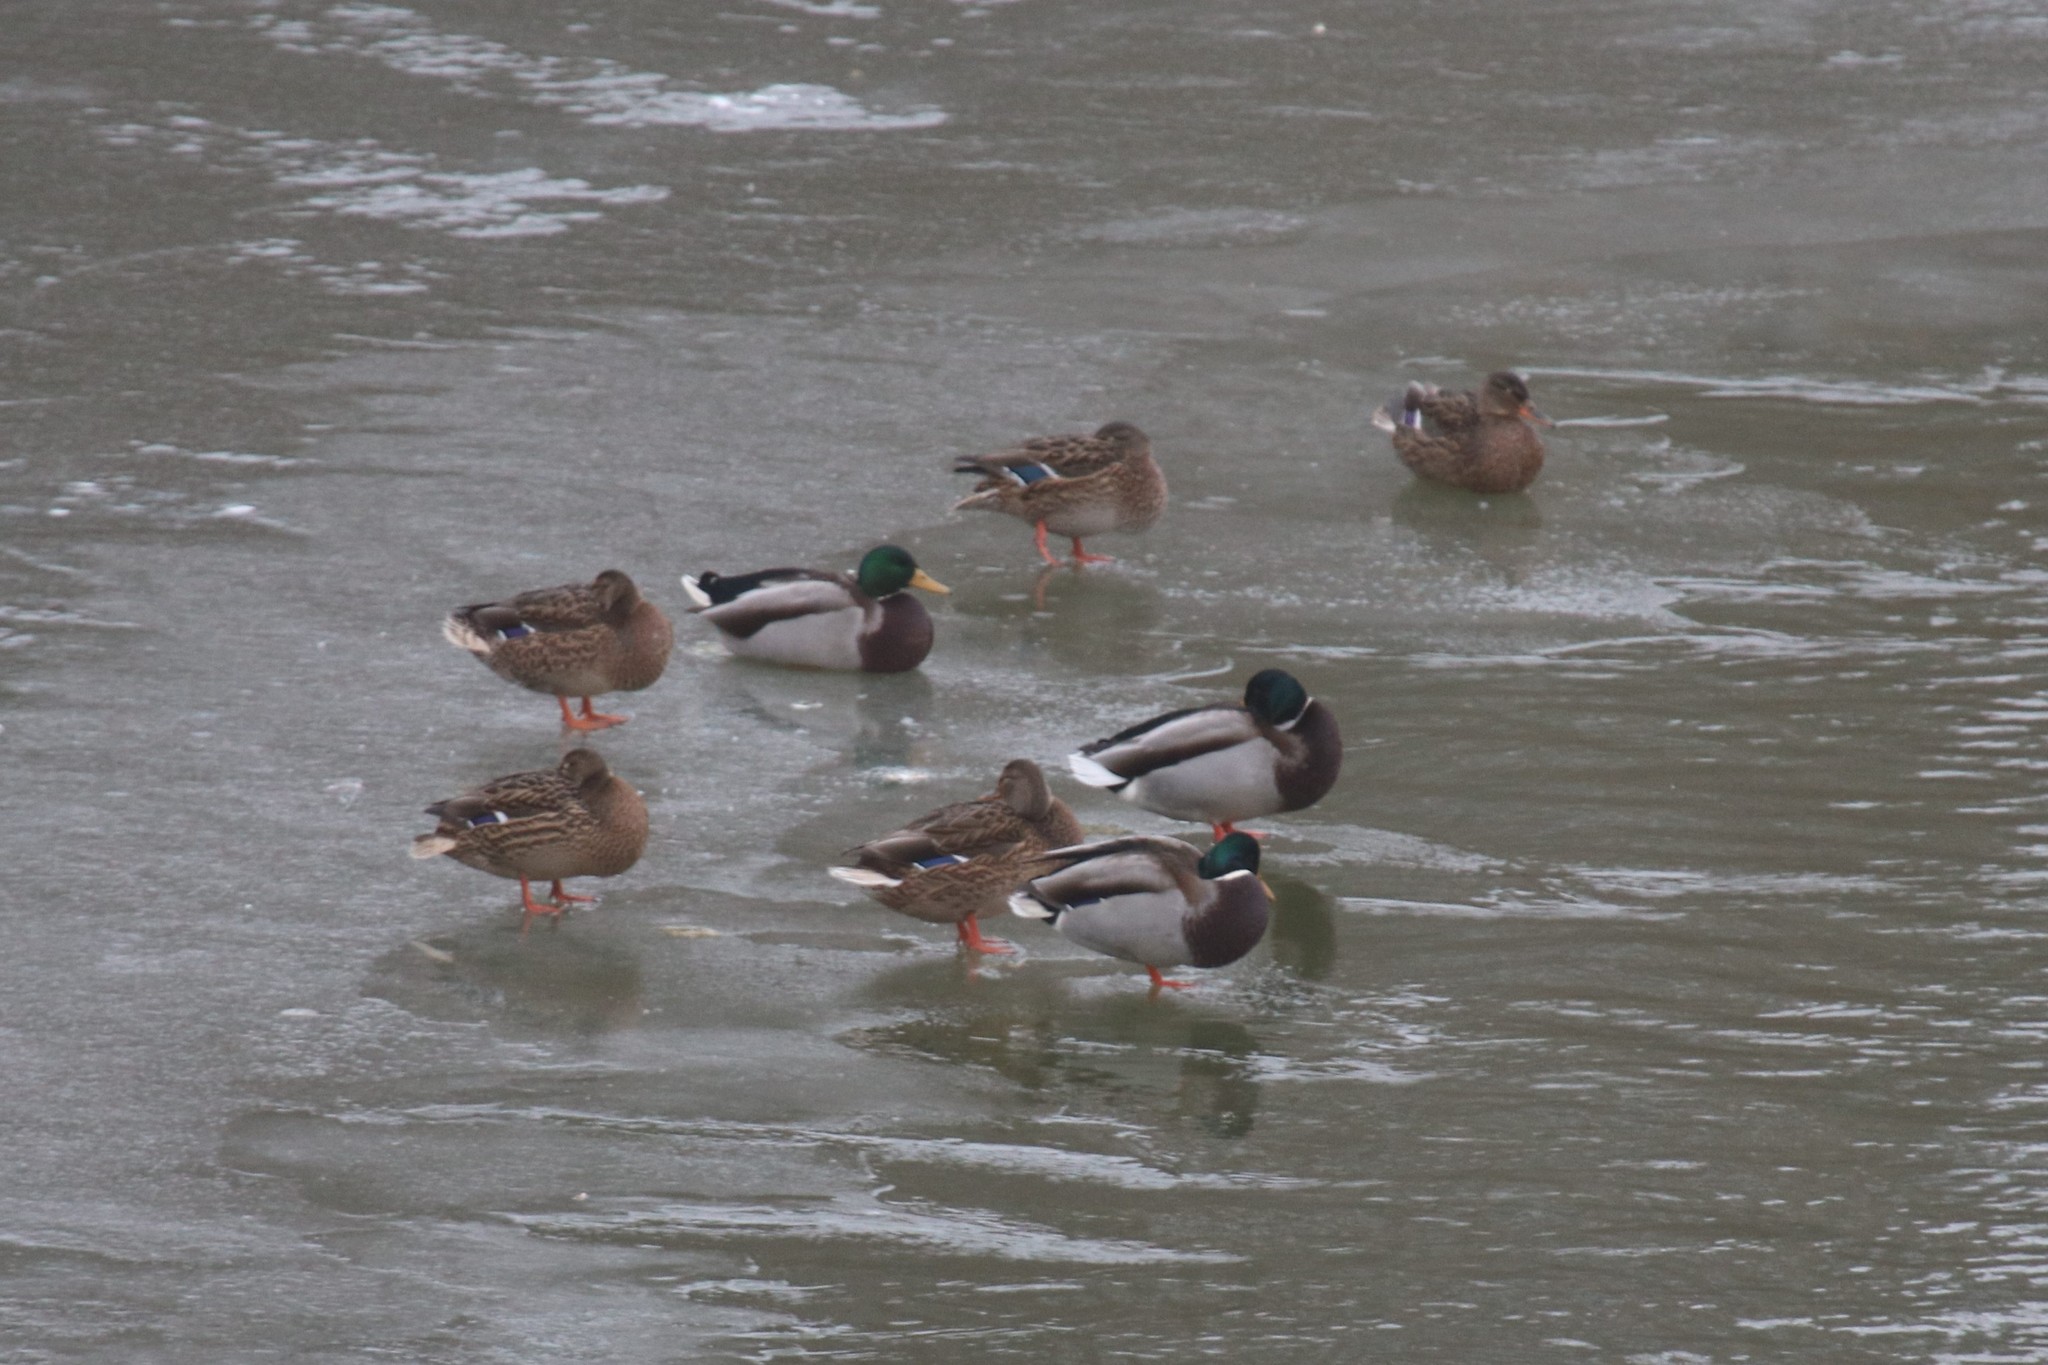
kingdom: Animalia
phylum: Chordata
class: Aves
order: Anseriformes
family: Anatidae
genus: Anas
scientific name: Anas platyrhynchos
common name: Mallard
